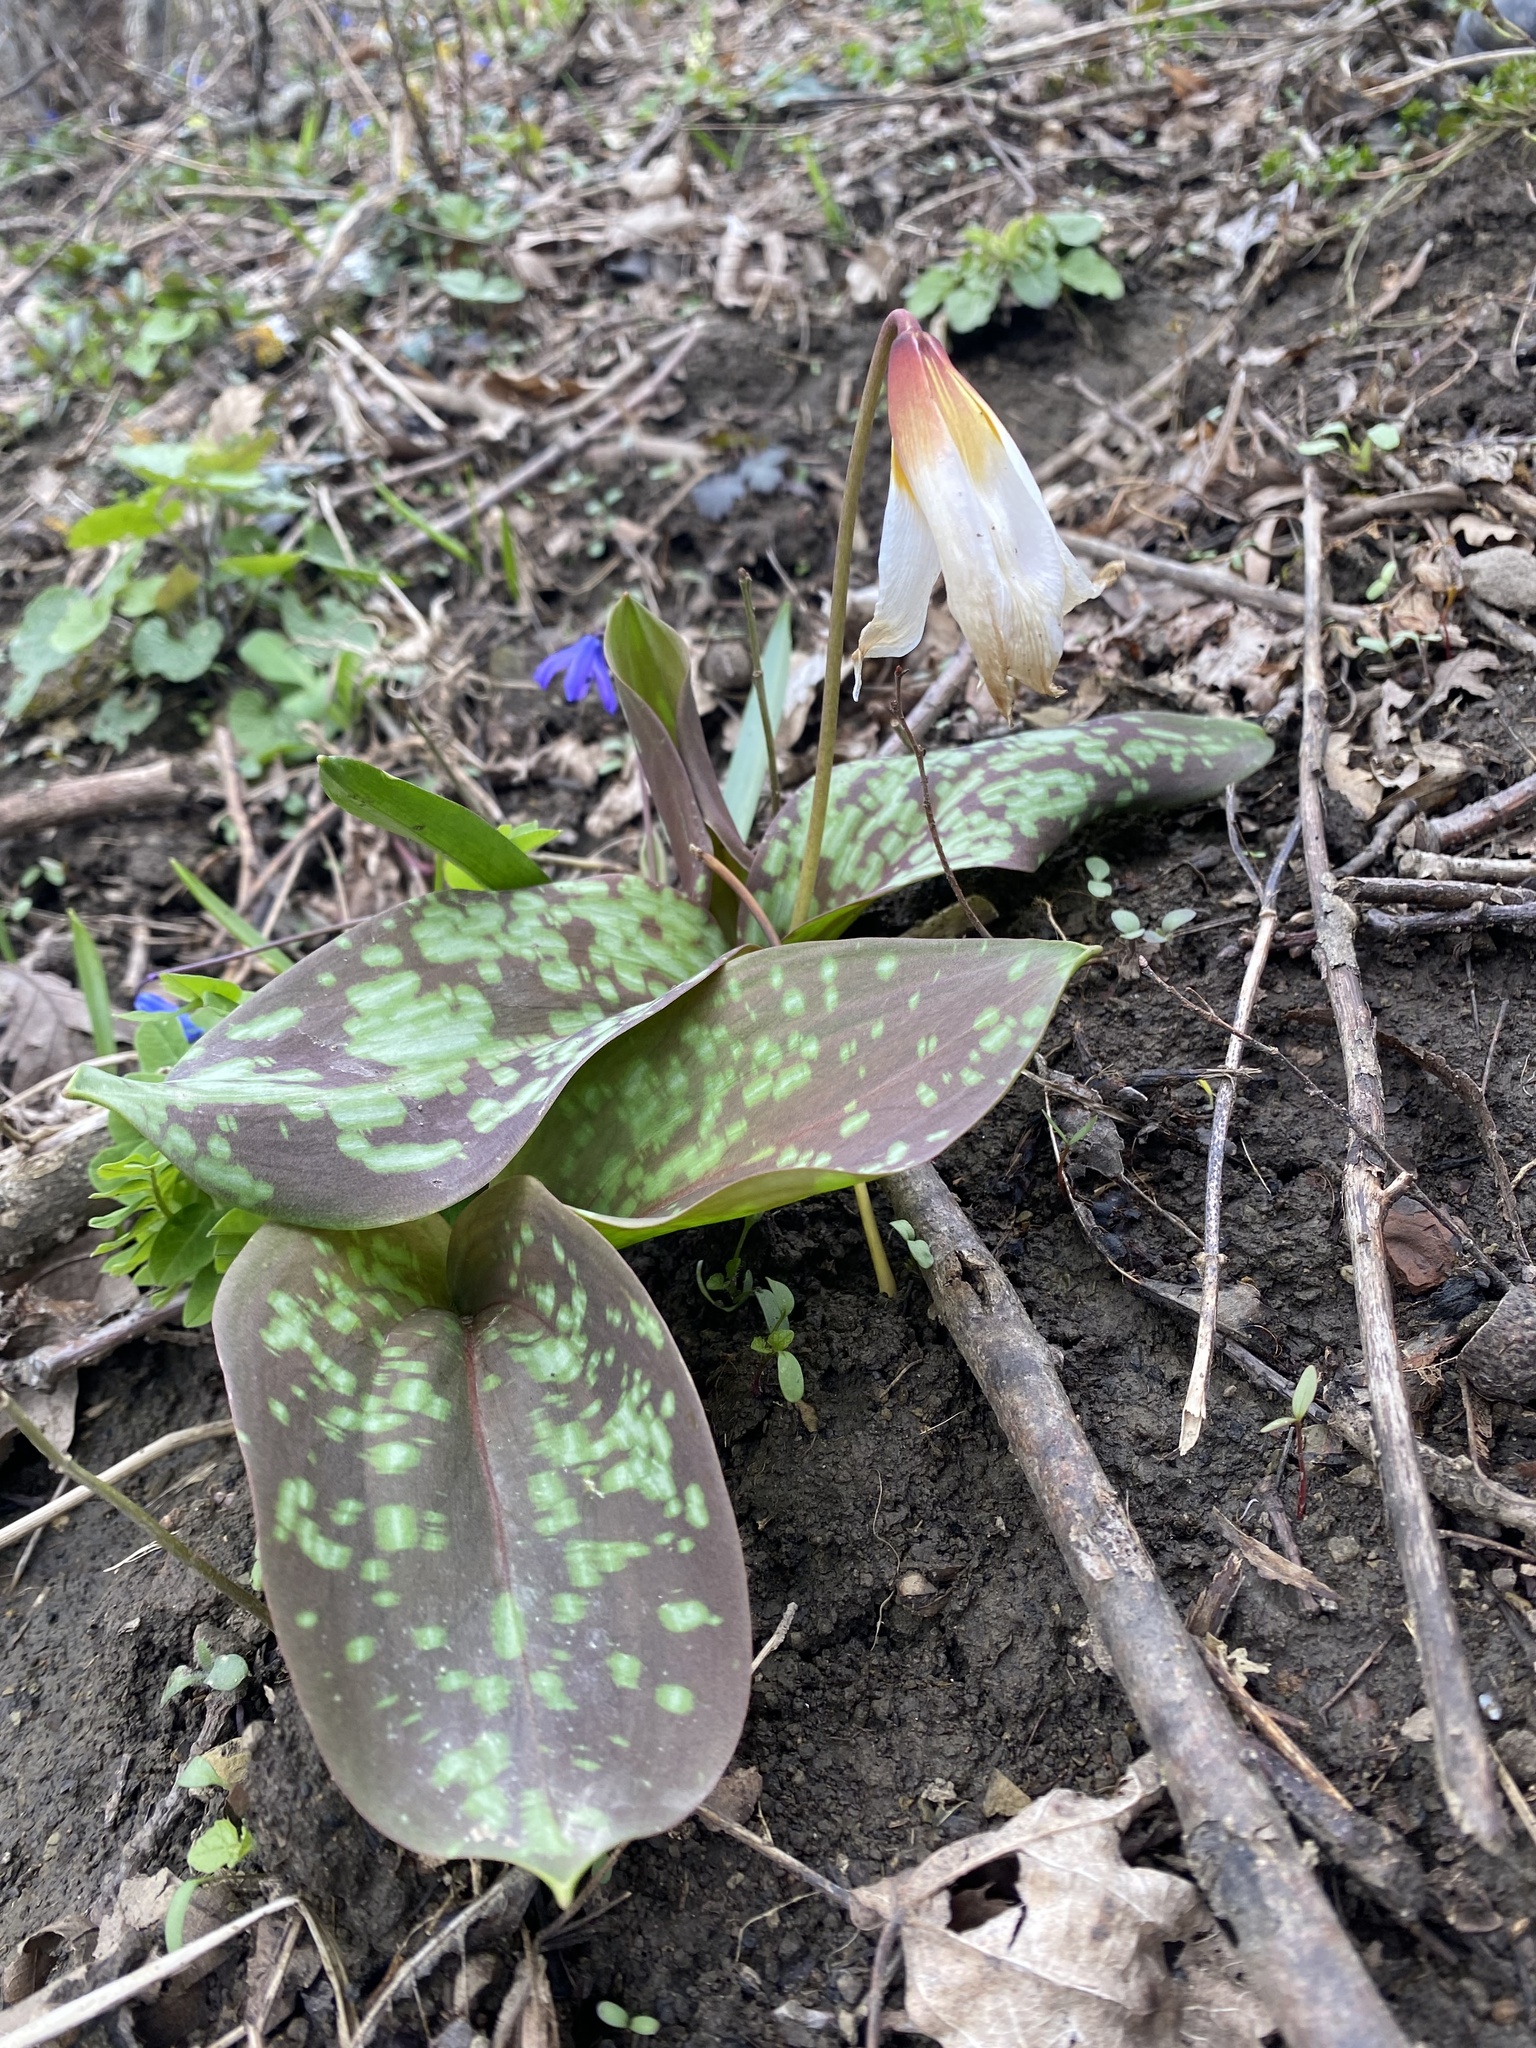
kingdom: Plantae
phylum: Tracheophyta
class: Liliopsida
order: Liliales
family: Liliaceae
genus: Erythronium
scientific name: Erythronium caucasicum
